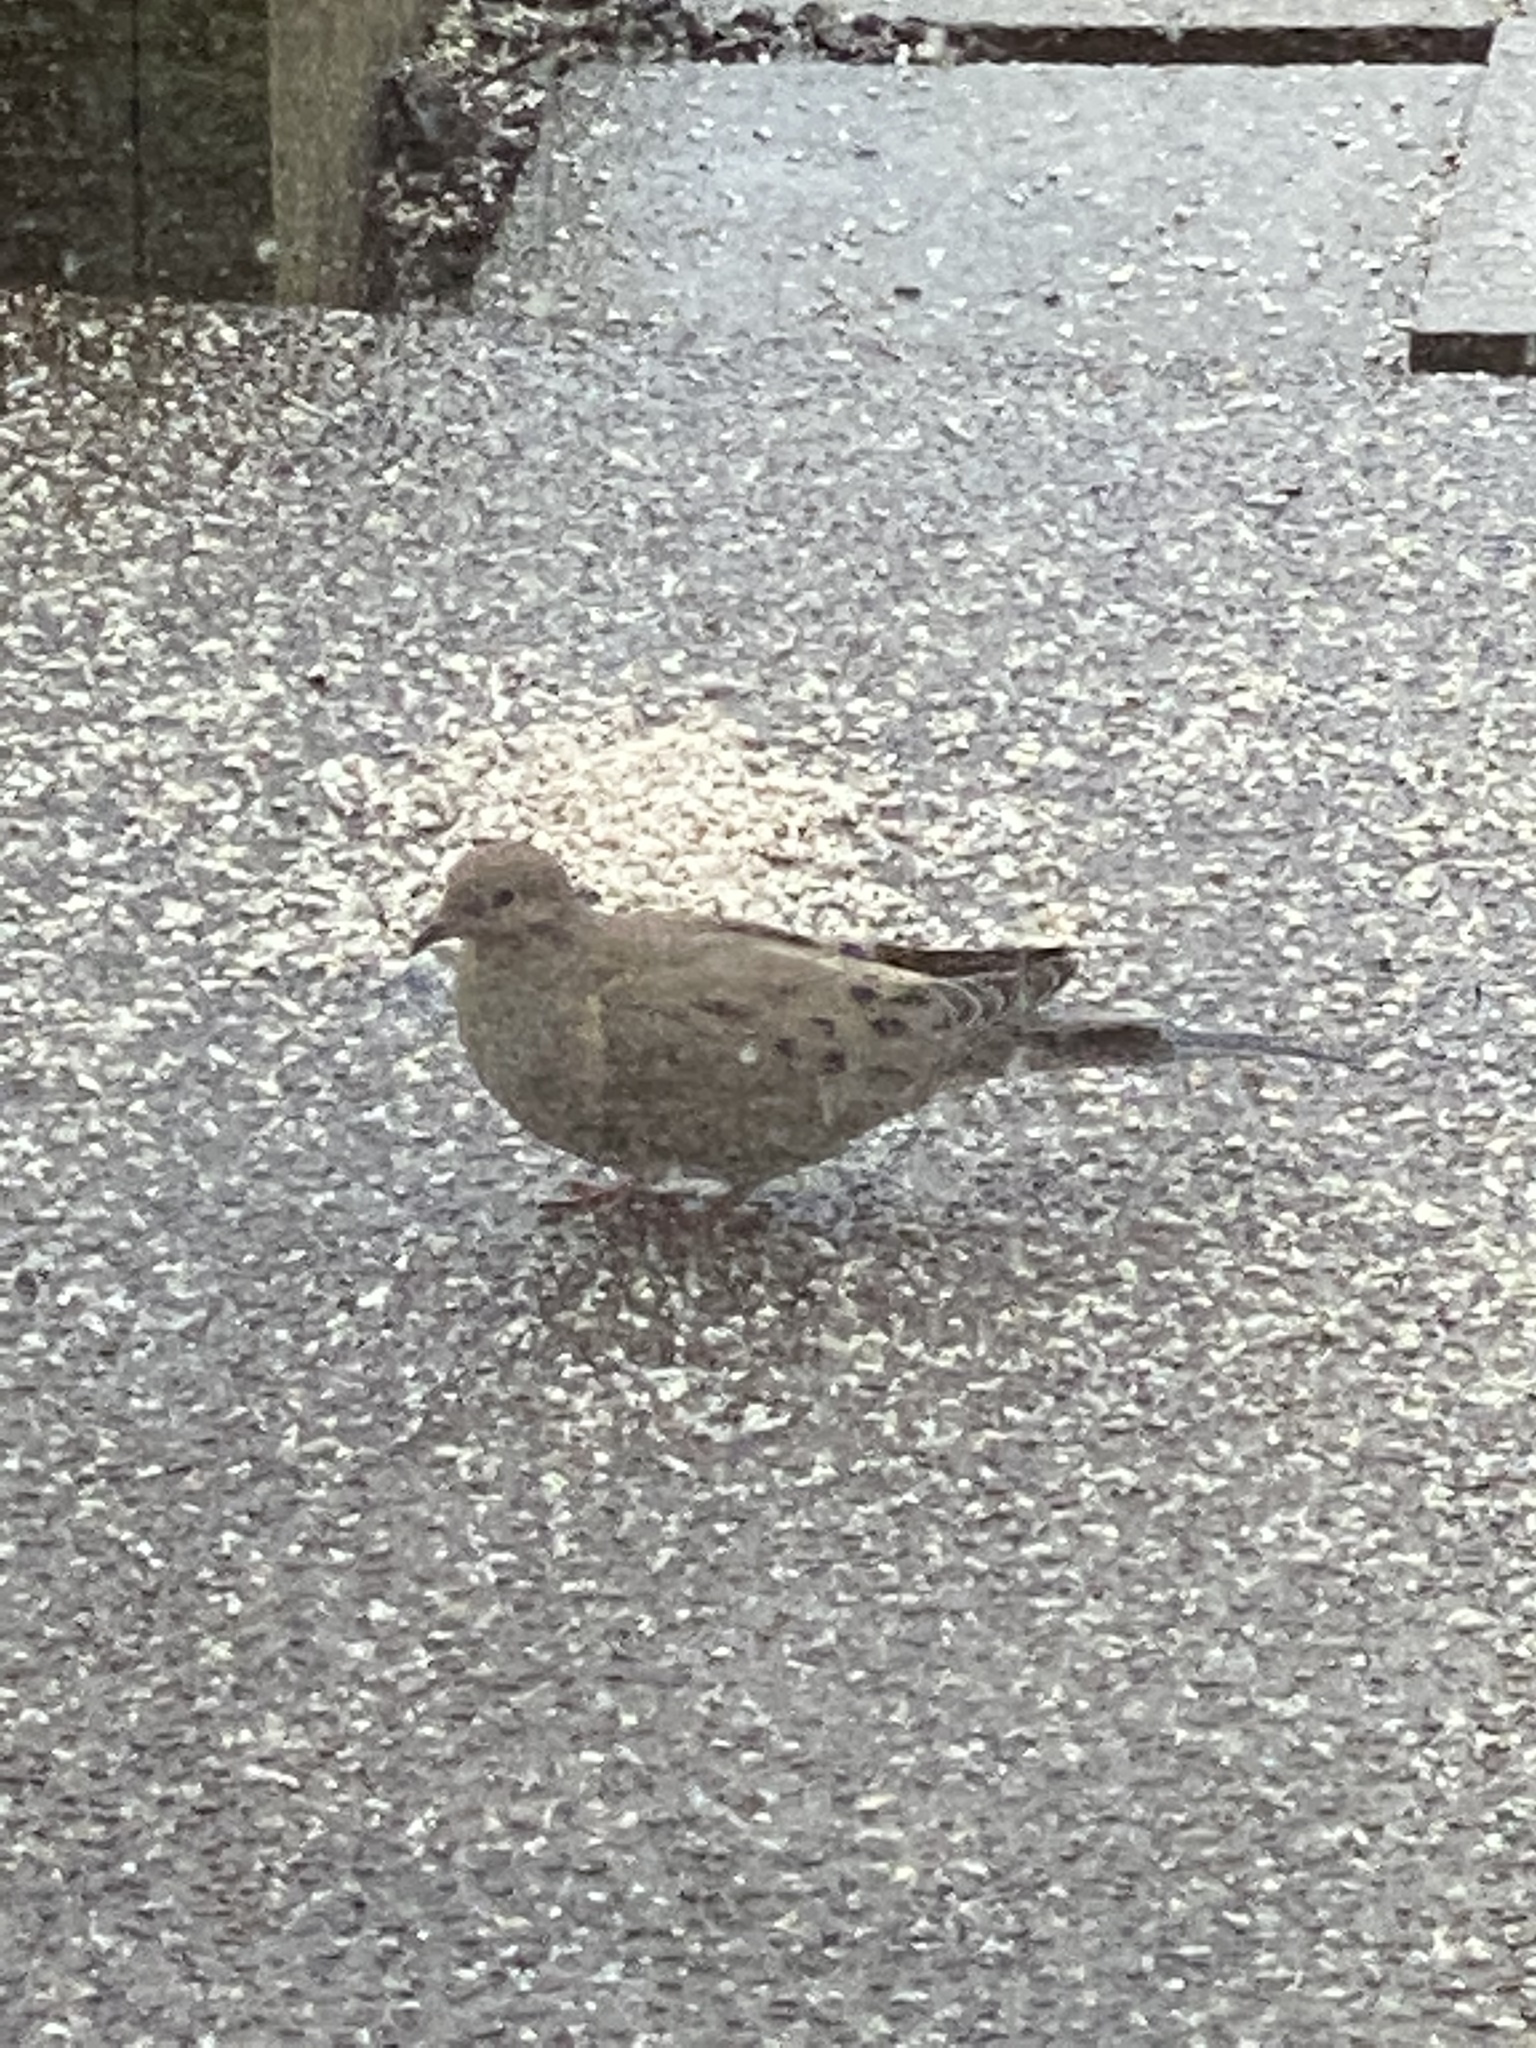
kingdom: Animalia
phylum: Chordata
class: Aves
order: Columbiformes
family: Columbidae
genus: Zenaida
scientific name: Zenaida macroura
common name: Mourning dove
